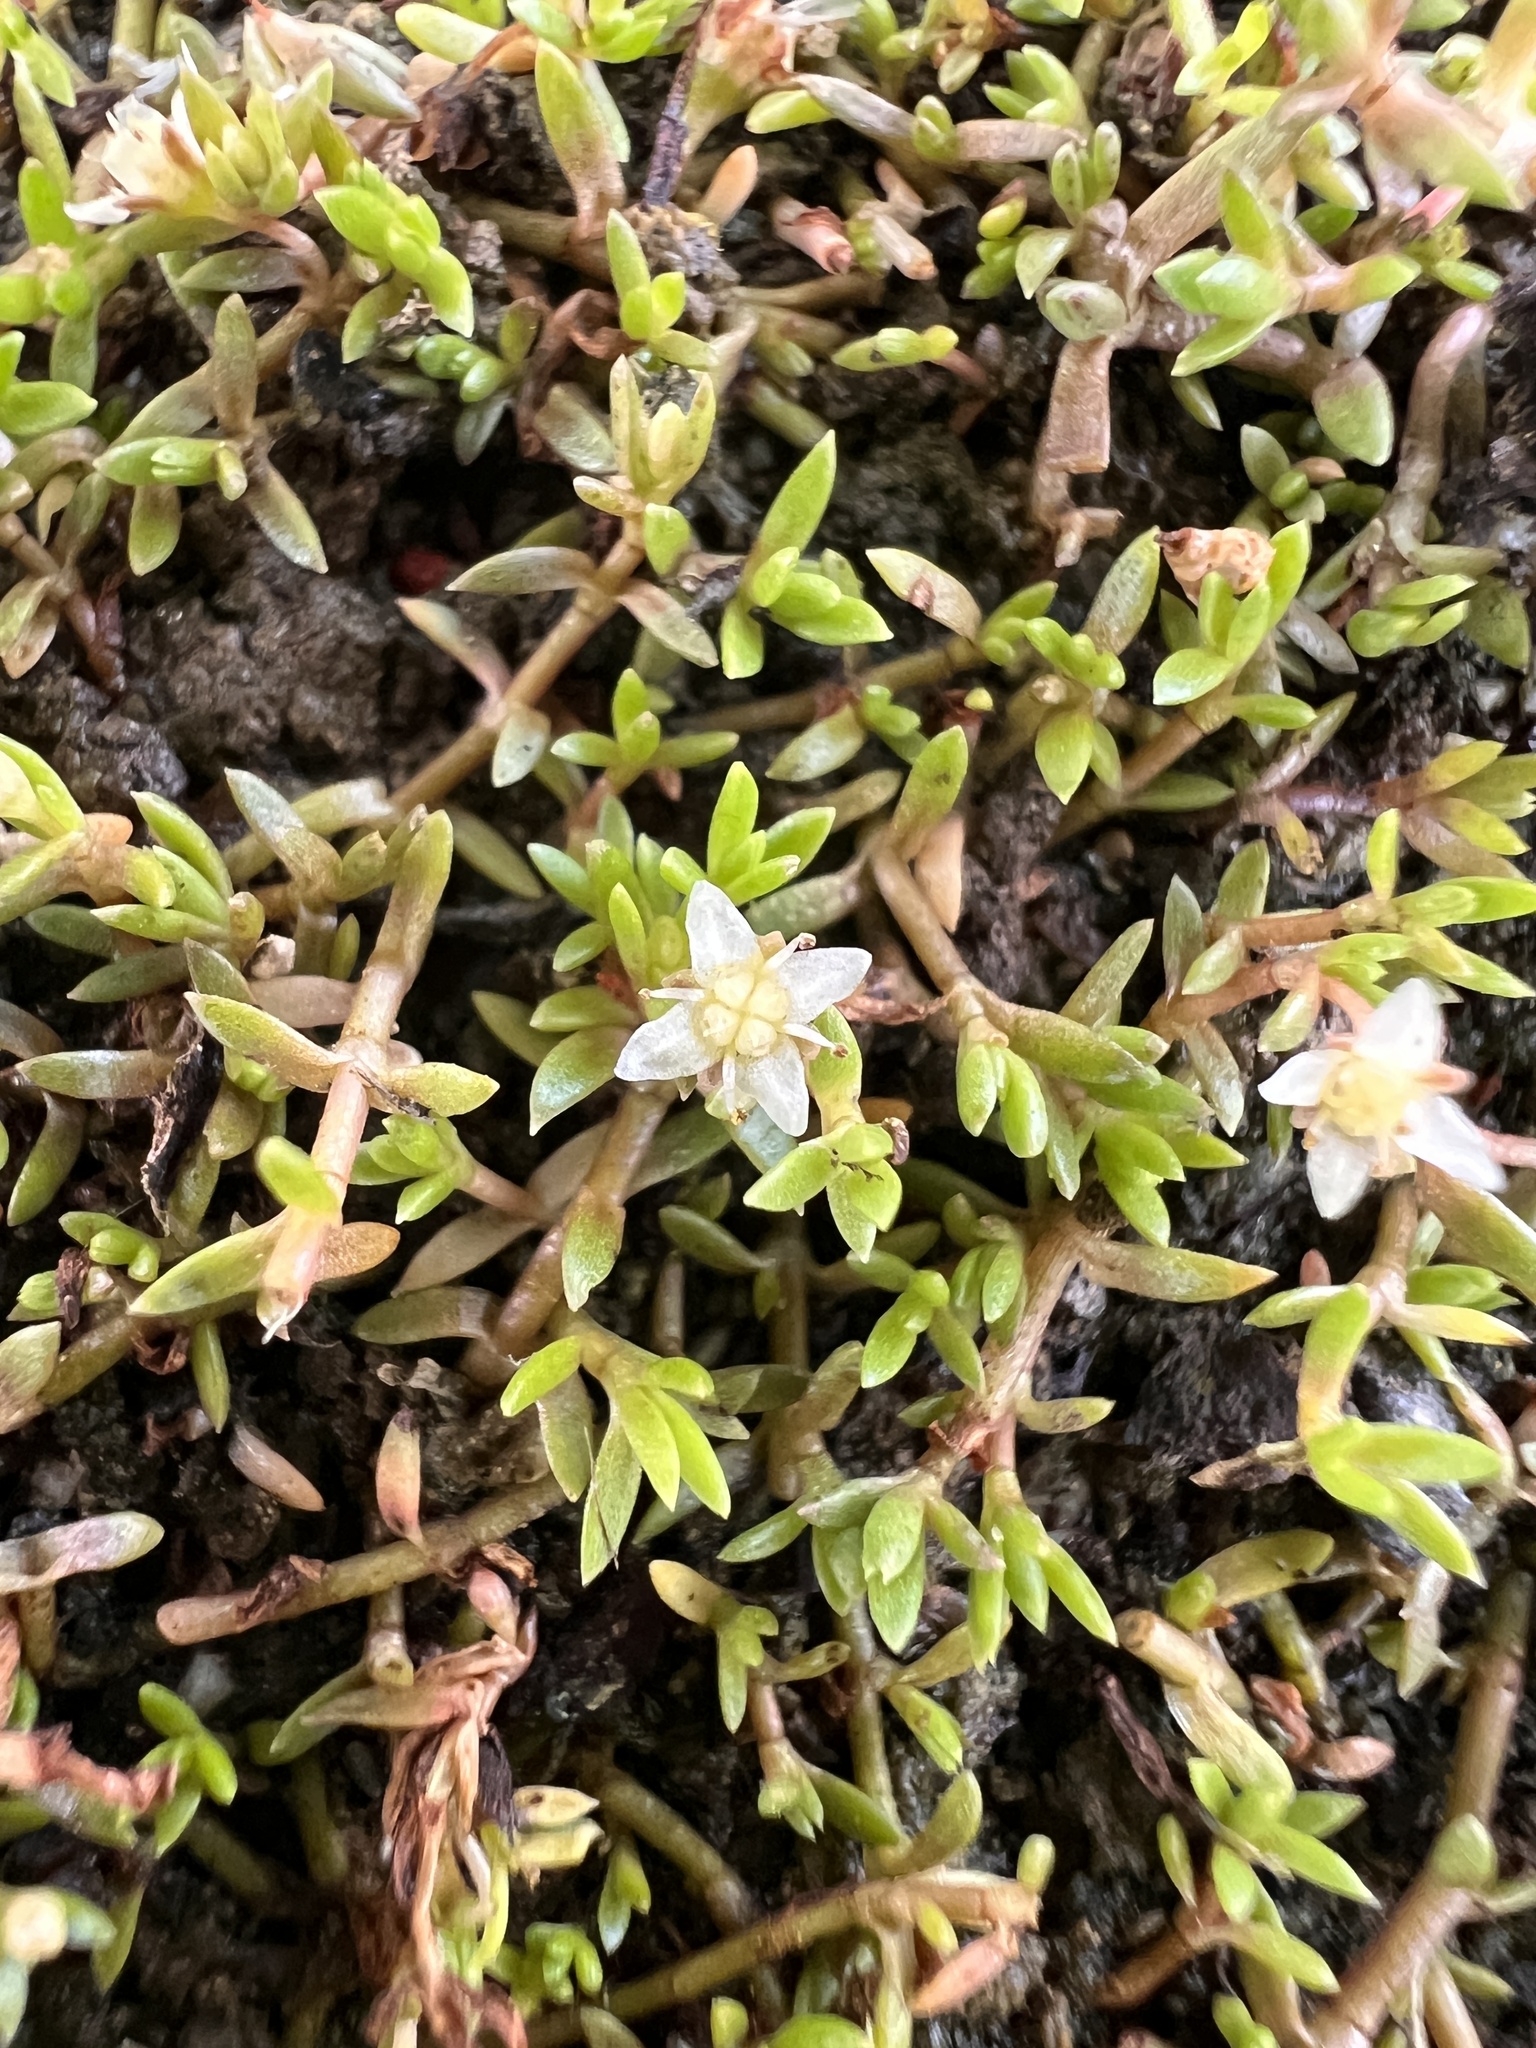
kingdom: Plantae
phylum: Tracheophyta
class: Magnoliopsida
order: Saxifragales
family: Crassulaceae
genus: Crassula
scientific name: Crassula helmsii
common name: New zealand pigmyweed
